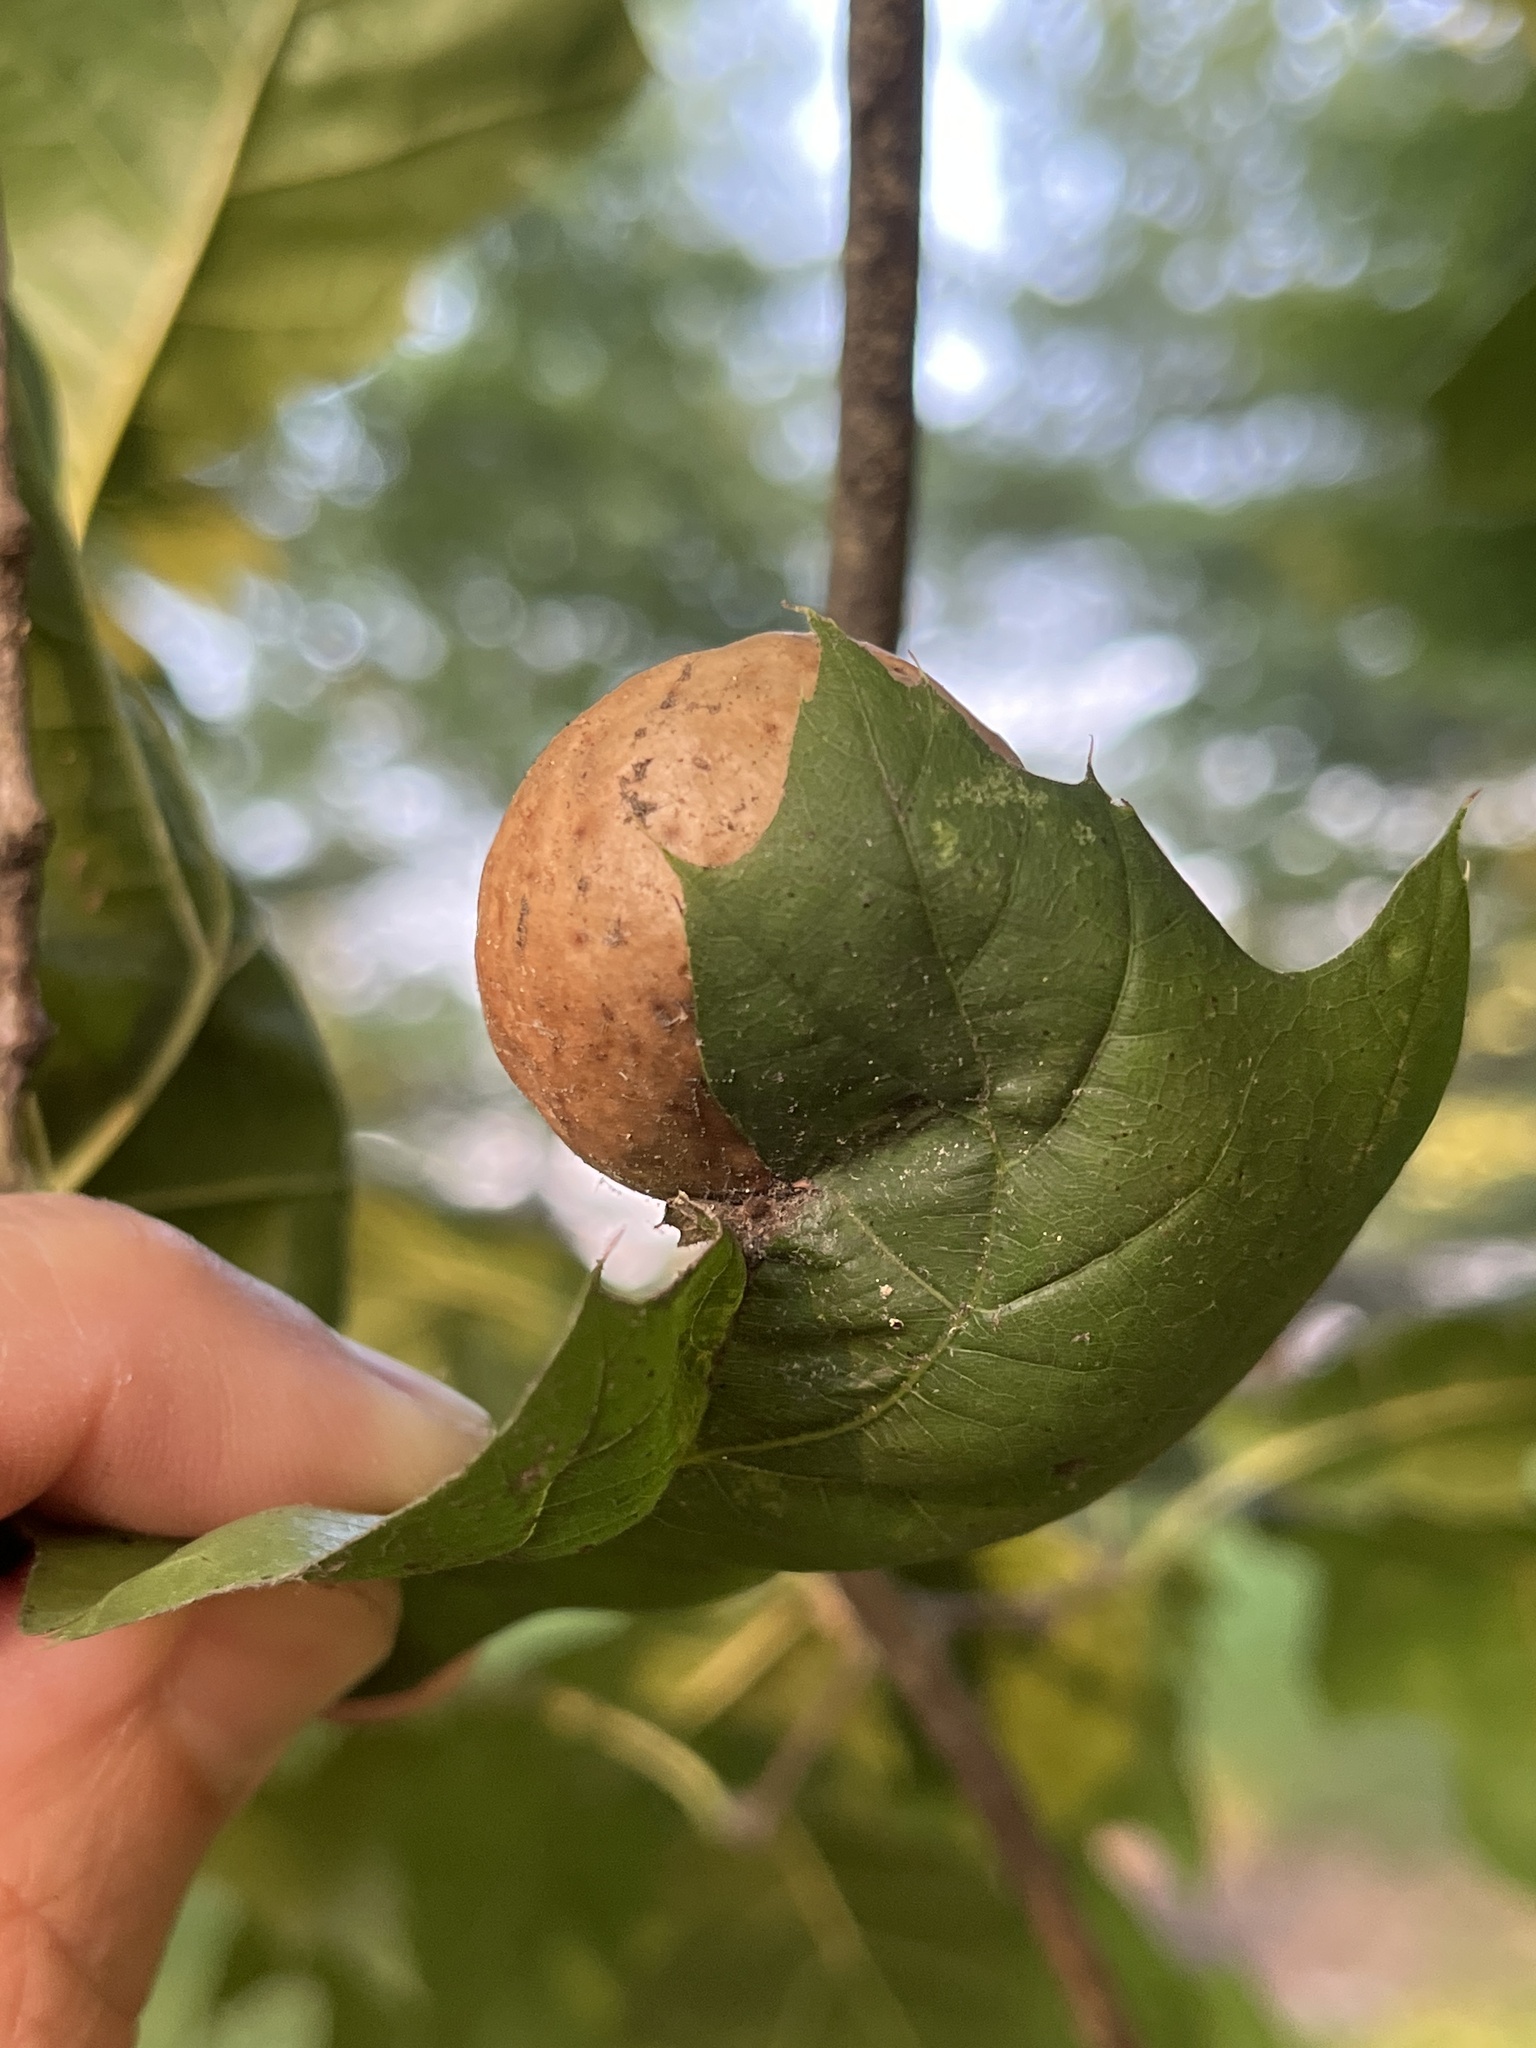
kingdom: Animalia
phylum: Arthropoda
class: Insecta
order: Hymenoptera
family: Cynipidae
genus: Amphibolips
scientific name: Amphibolips
